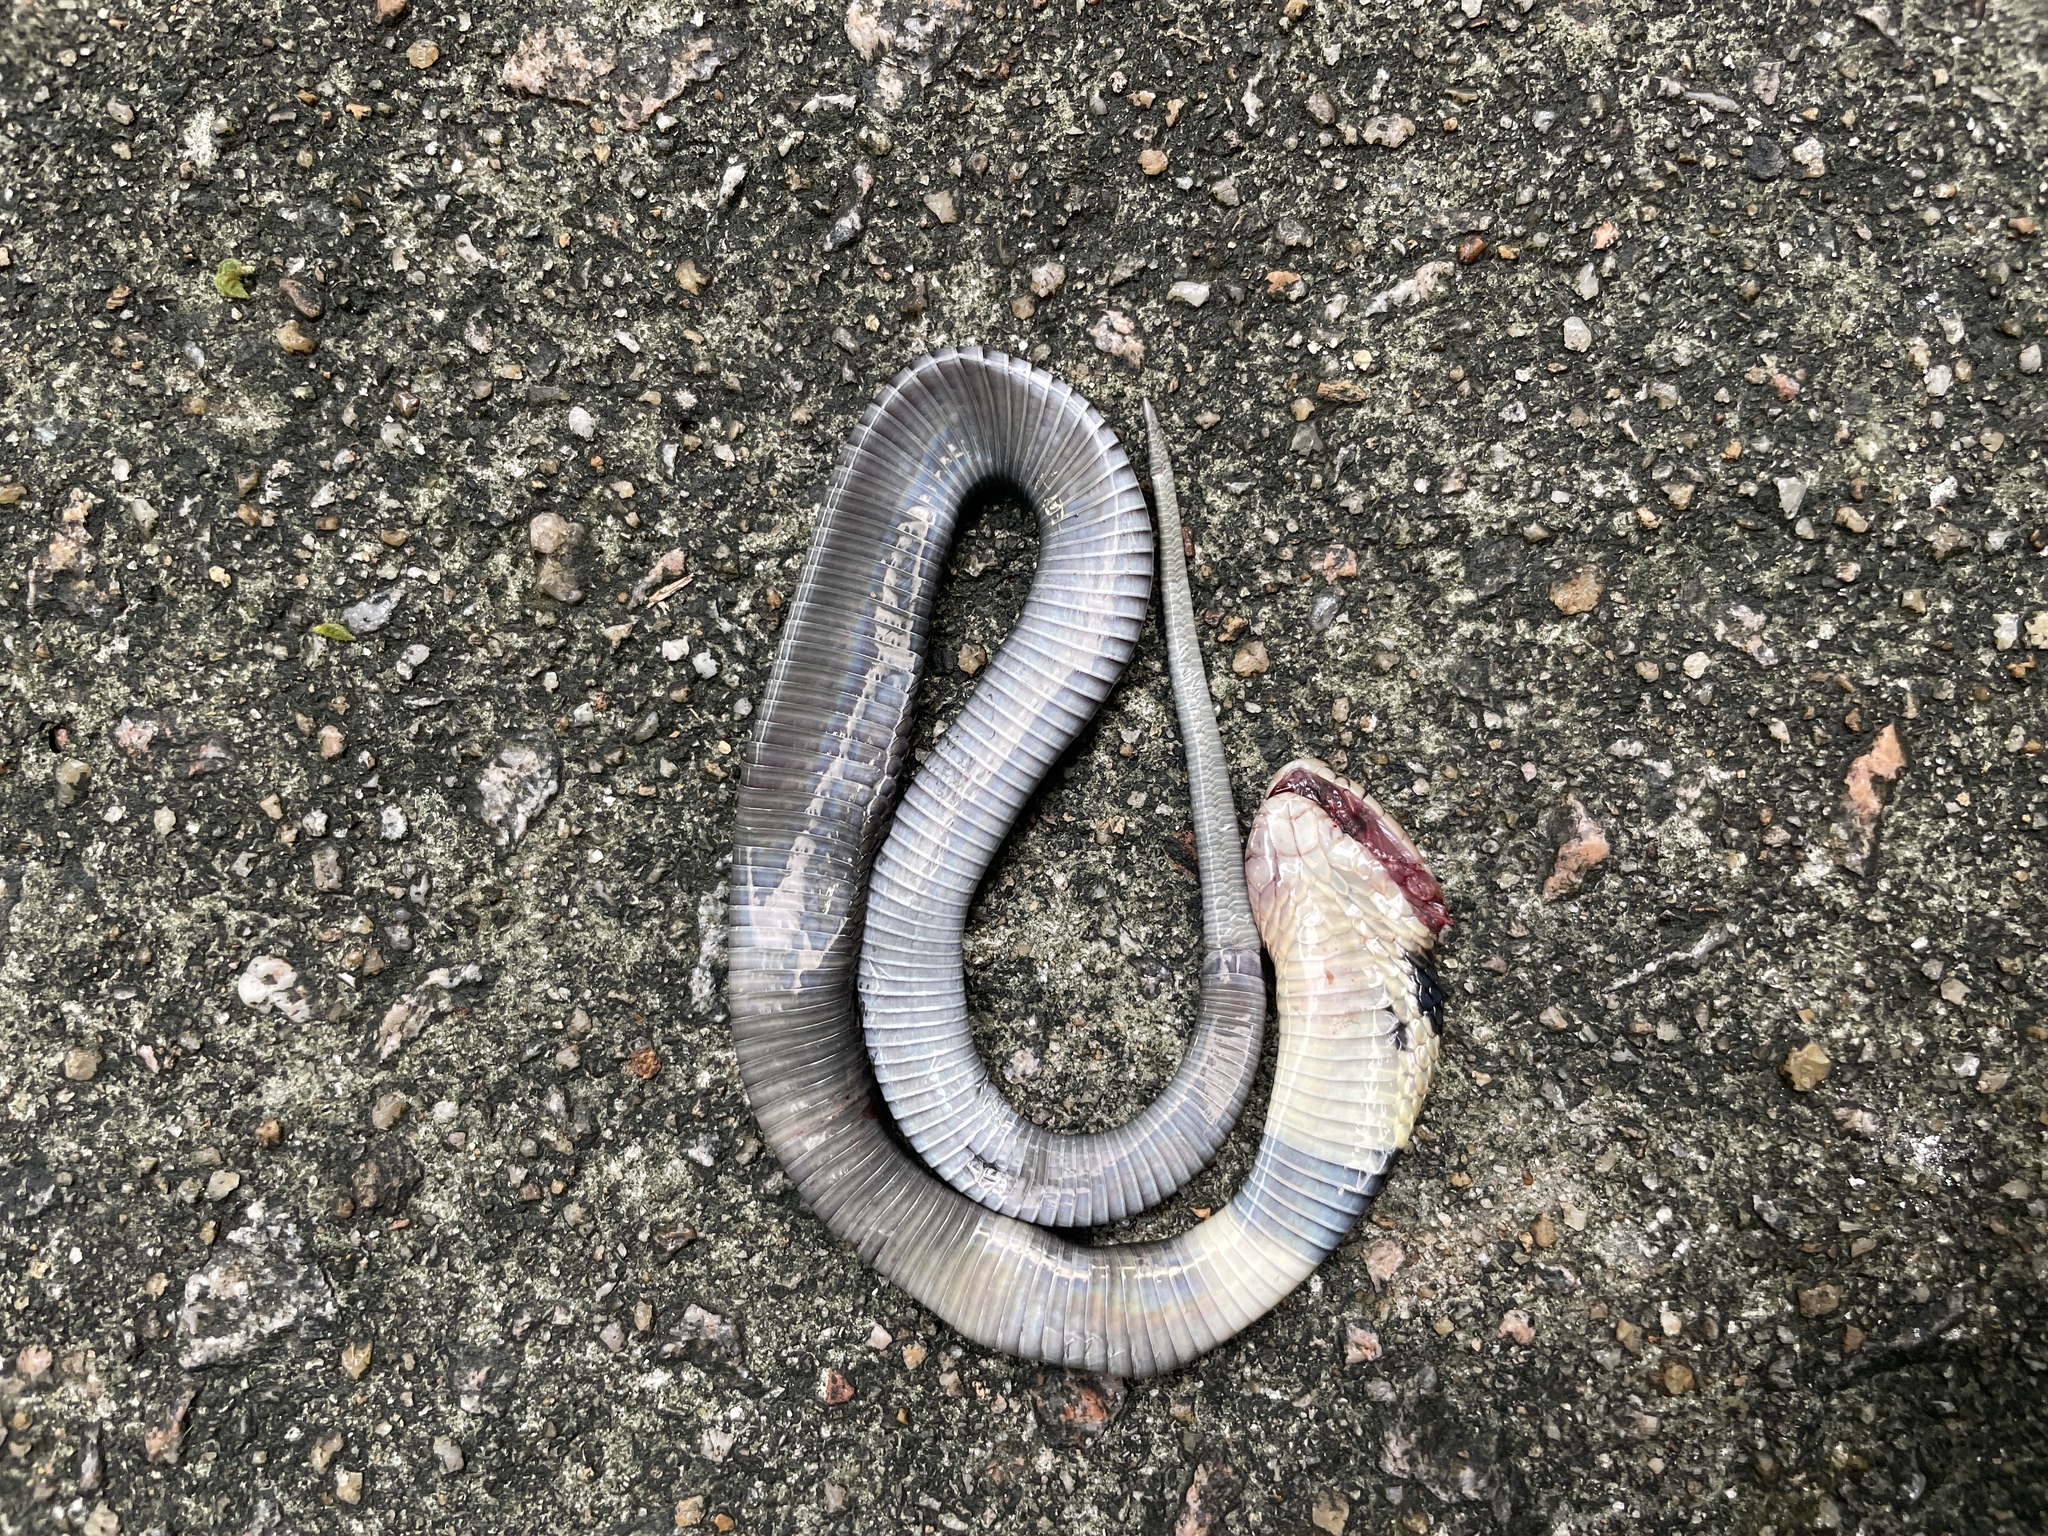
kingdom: Animalia
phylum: Chordata
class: Squamata
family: Elapidae
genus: Naja
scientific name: Naja atra
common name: Chinese cobra
